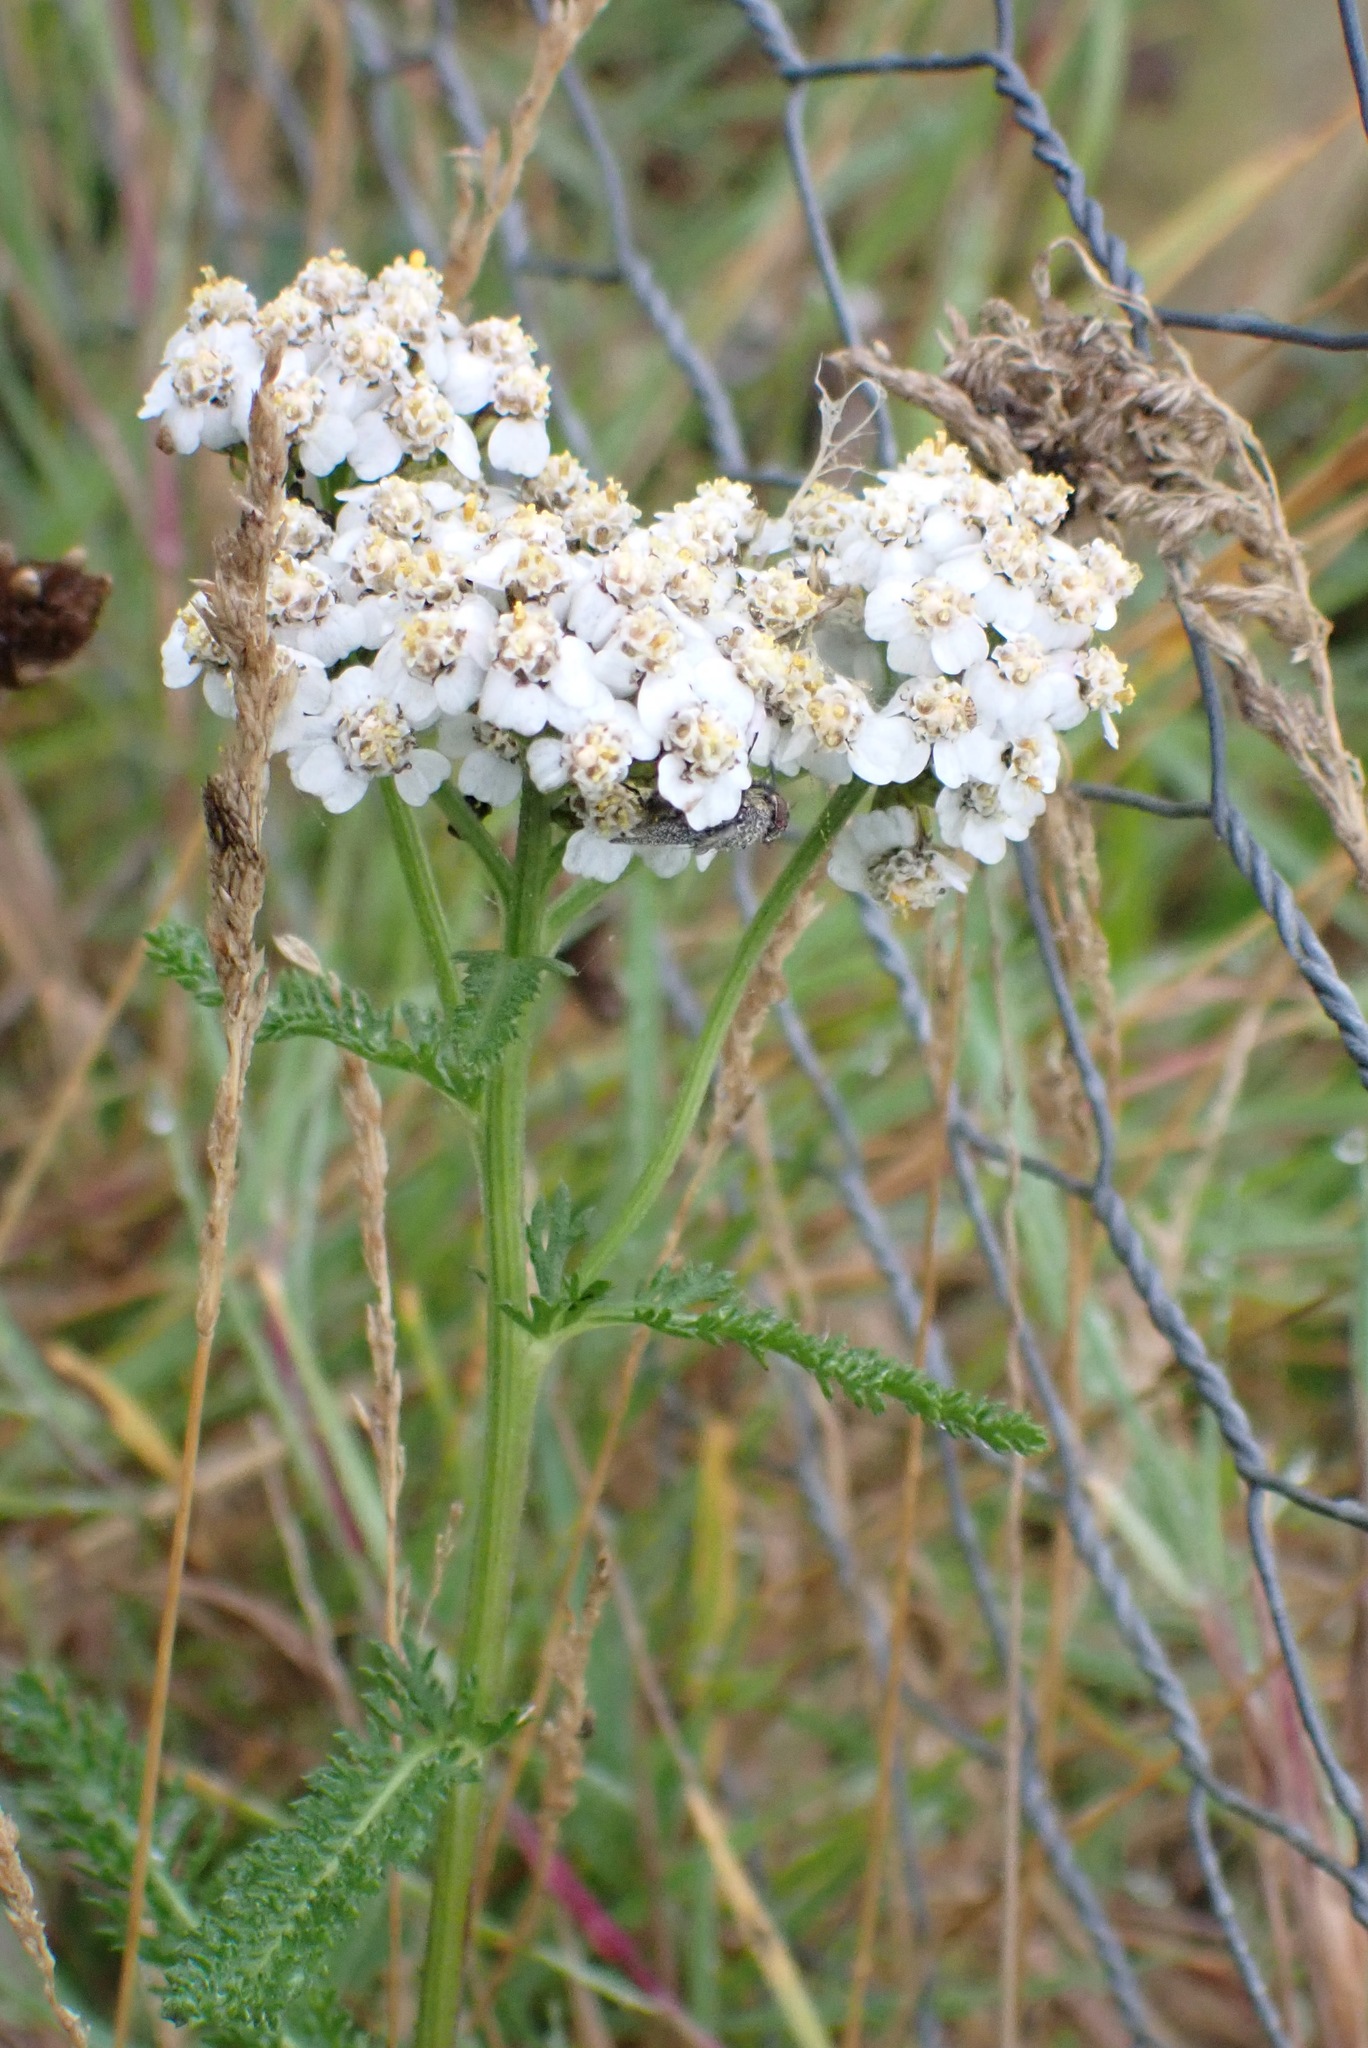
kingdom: Plantae
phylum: Tracheophyta
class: Magnoliopsida
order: Asterales
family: Asteraceae
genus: Achillea
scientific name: Achillea millefolium
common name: Yarrow
